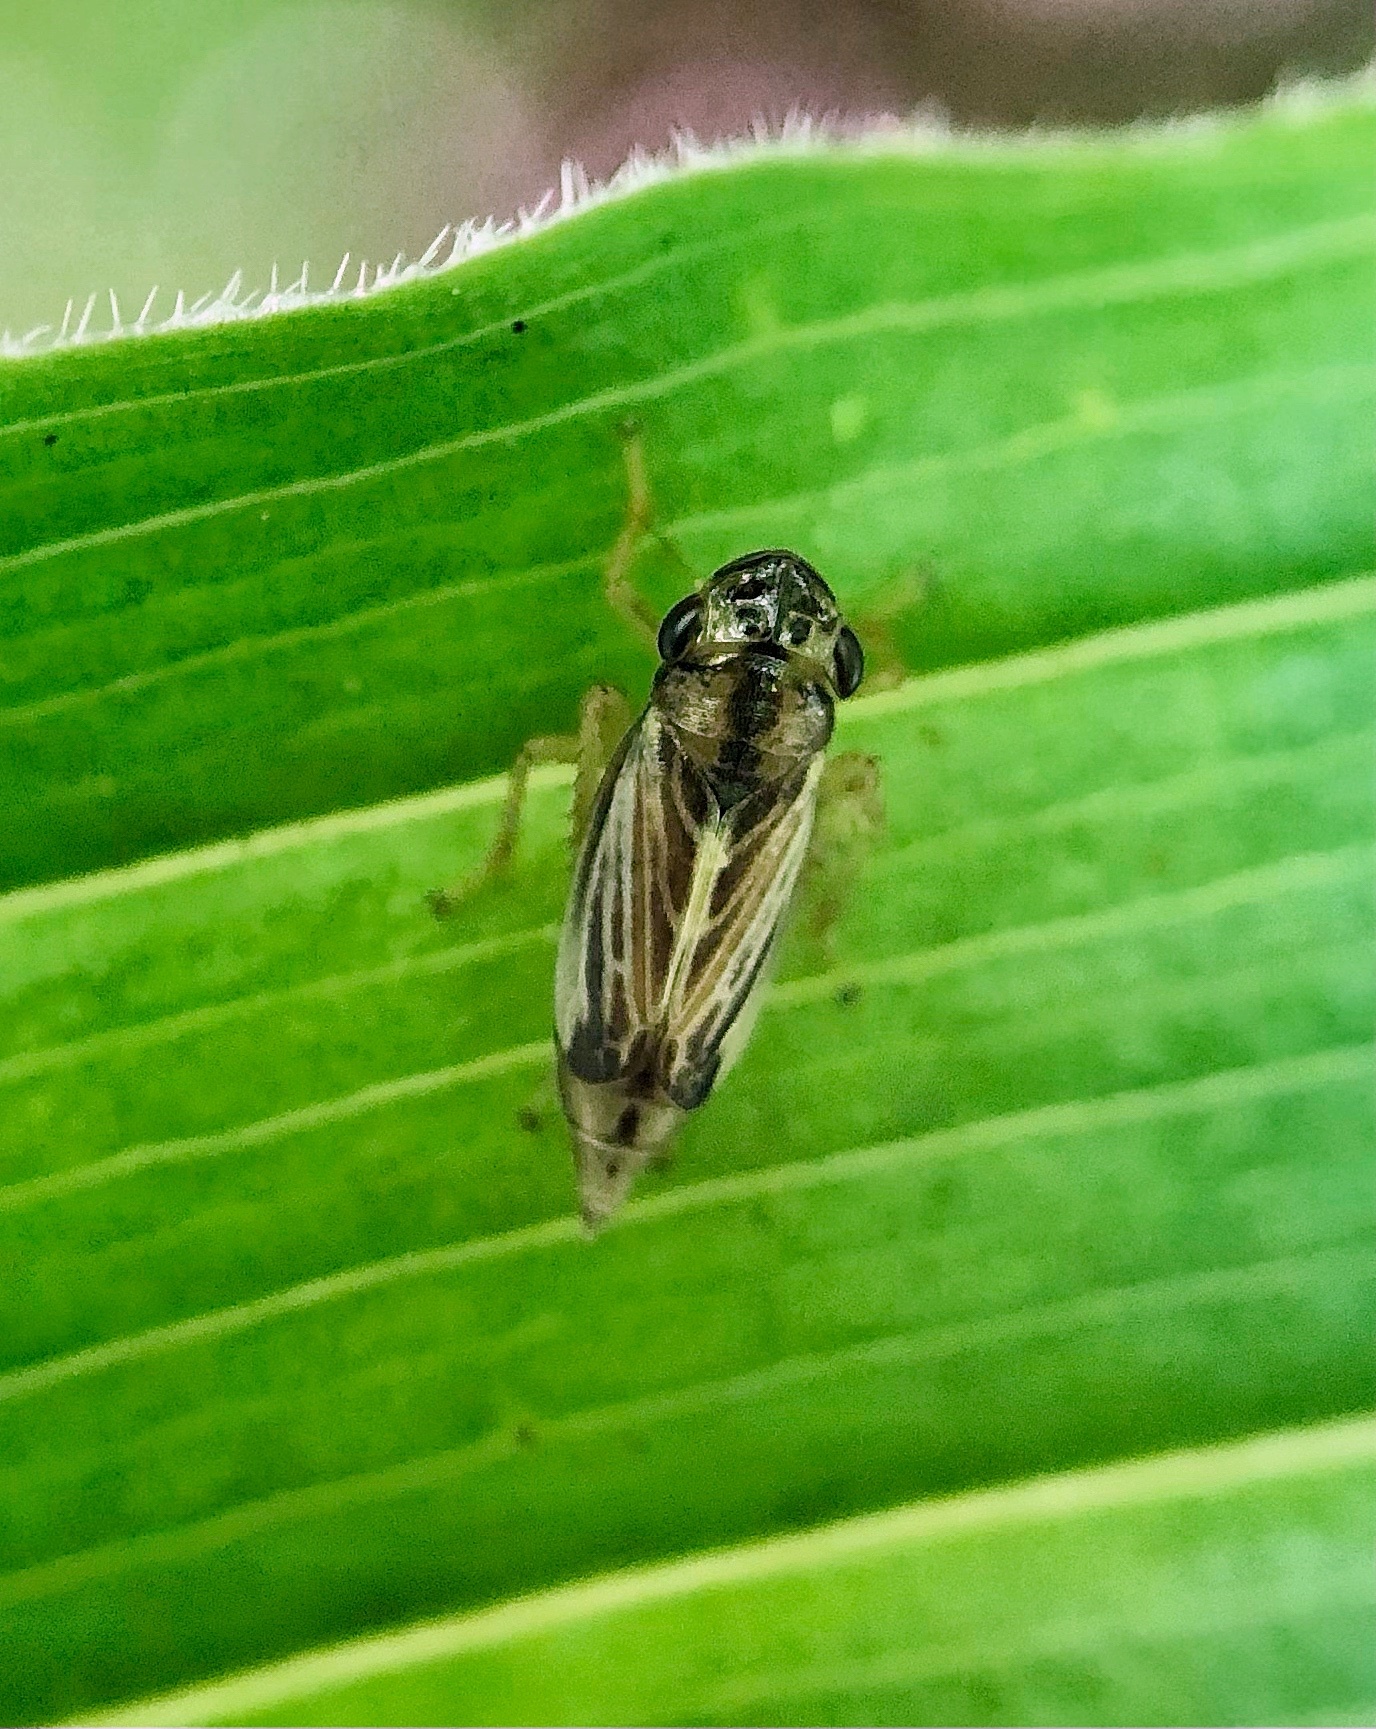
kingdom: Animalia
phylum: Arthropoda
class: Insecta
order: Hemiptera
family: Cicadellidae
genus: Evacanthus
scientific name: Evacanthus nigramericanus
